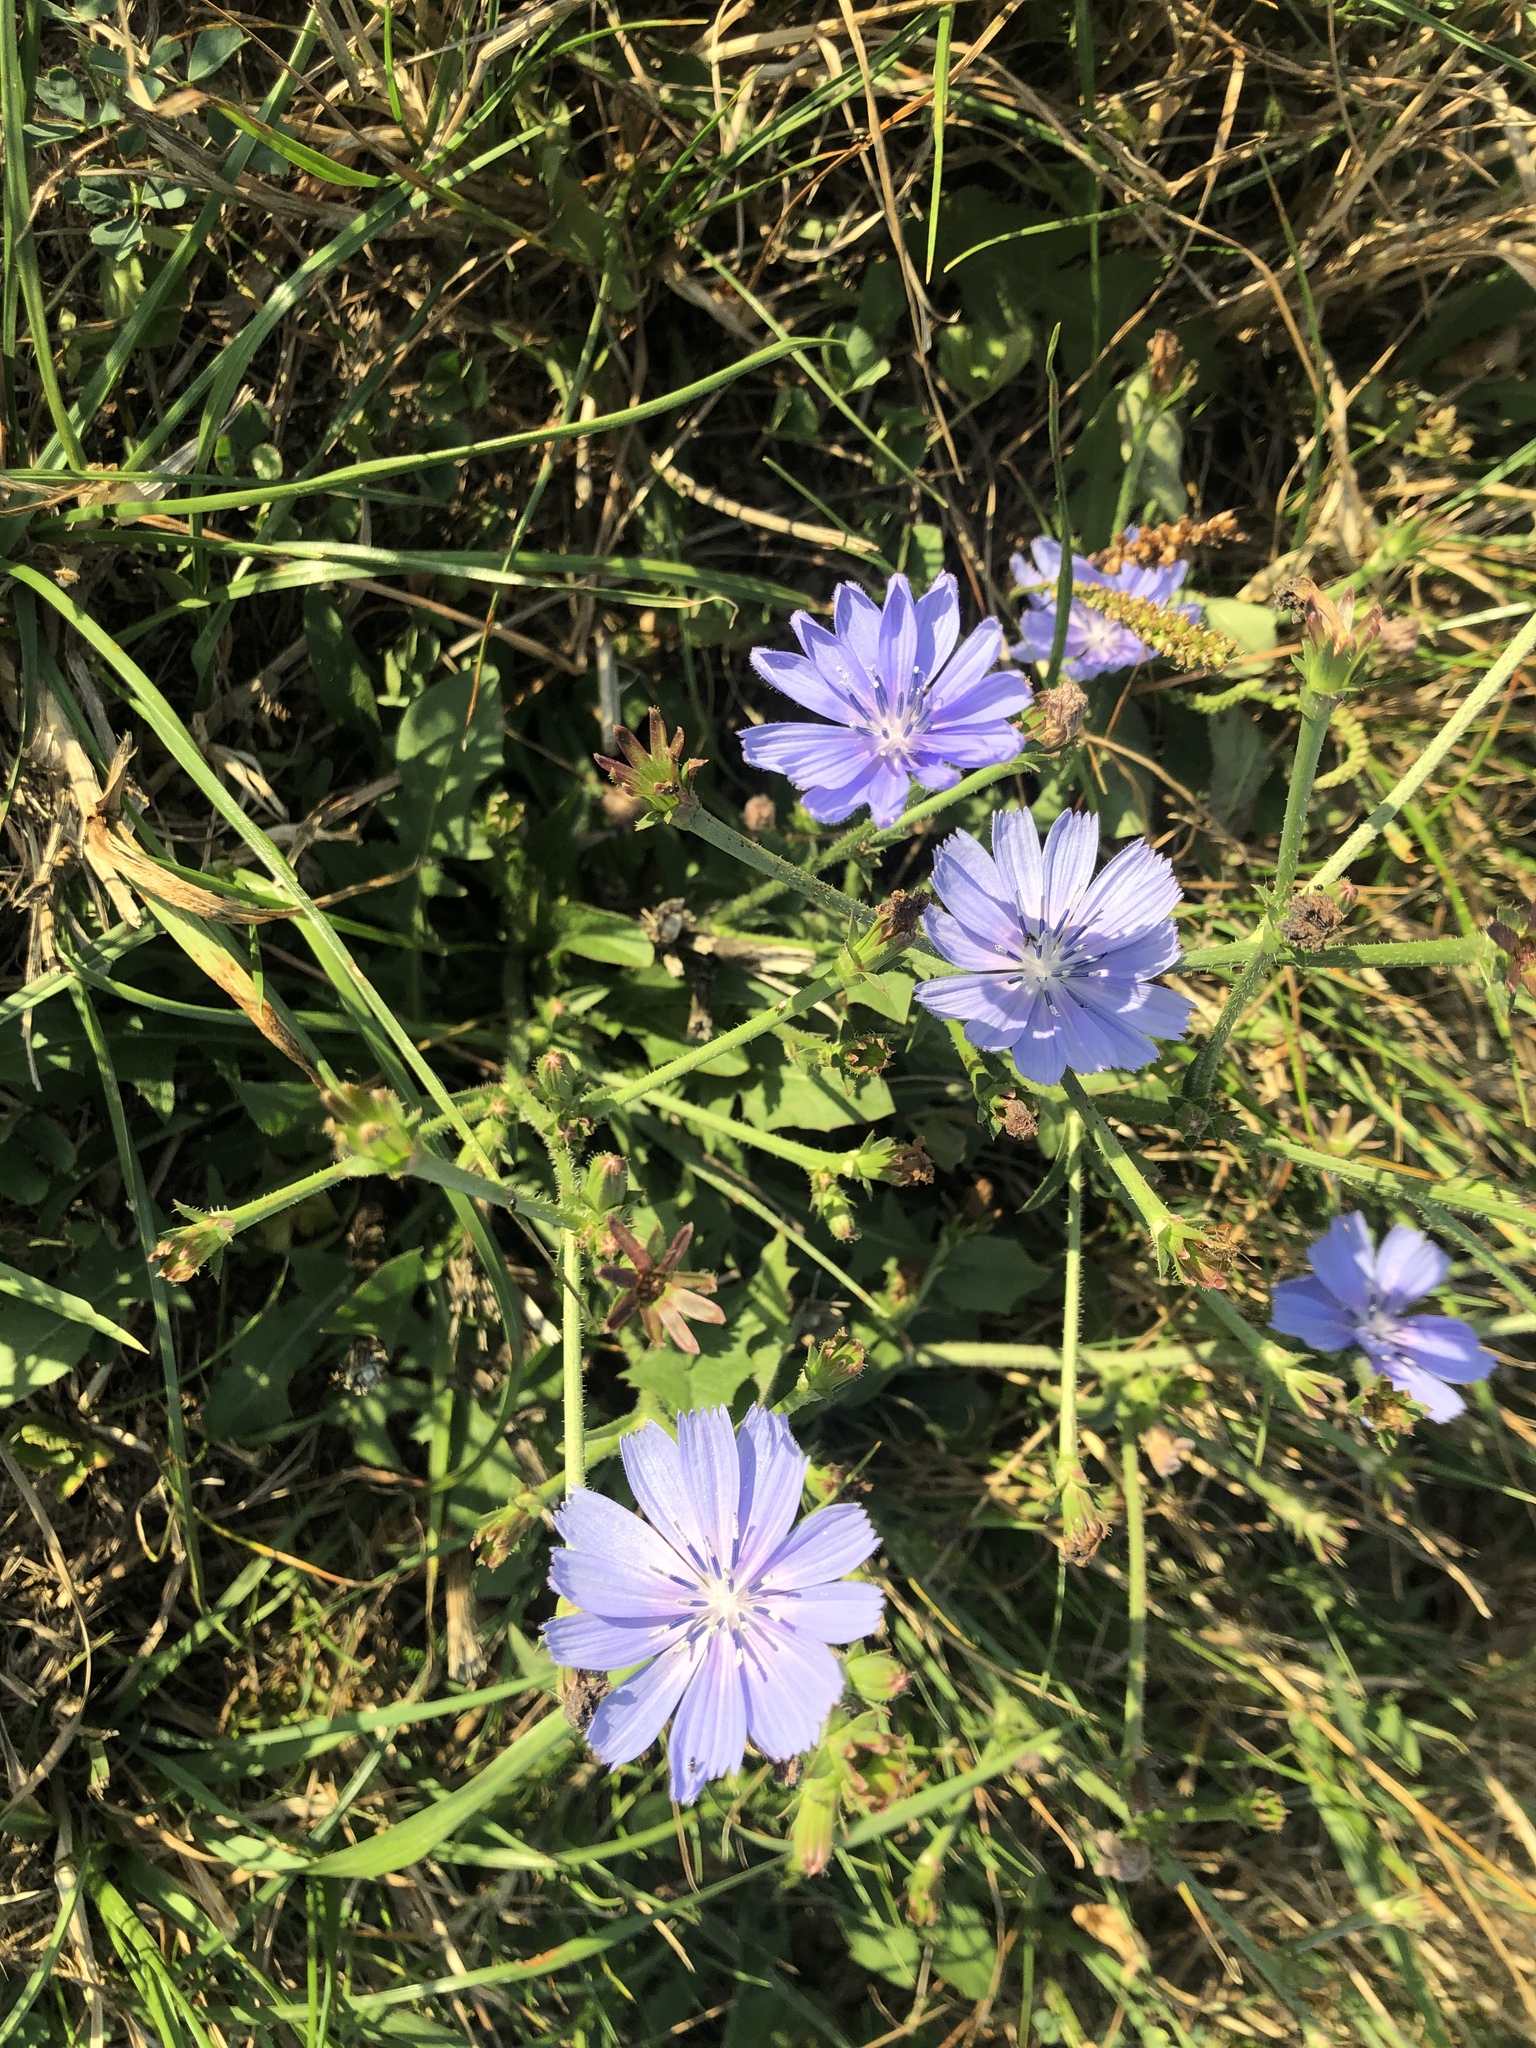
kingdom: Plantae
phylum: Tracheophyta
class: Magnoliopsida
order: Asterales
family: Asteraceae
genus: Cichorium
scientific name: Cichorium intybus
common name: Chicory
